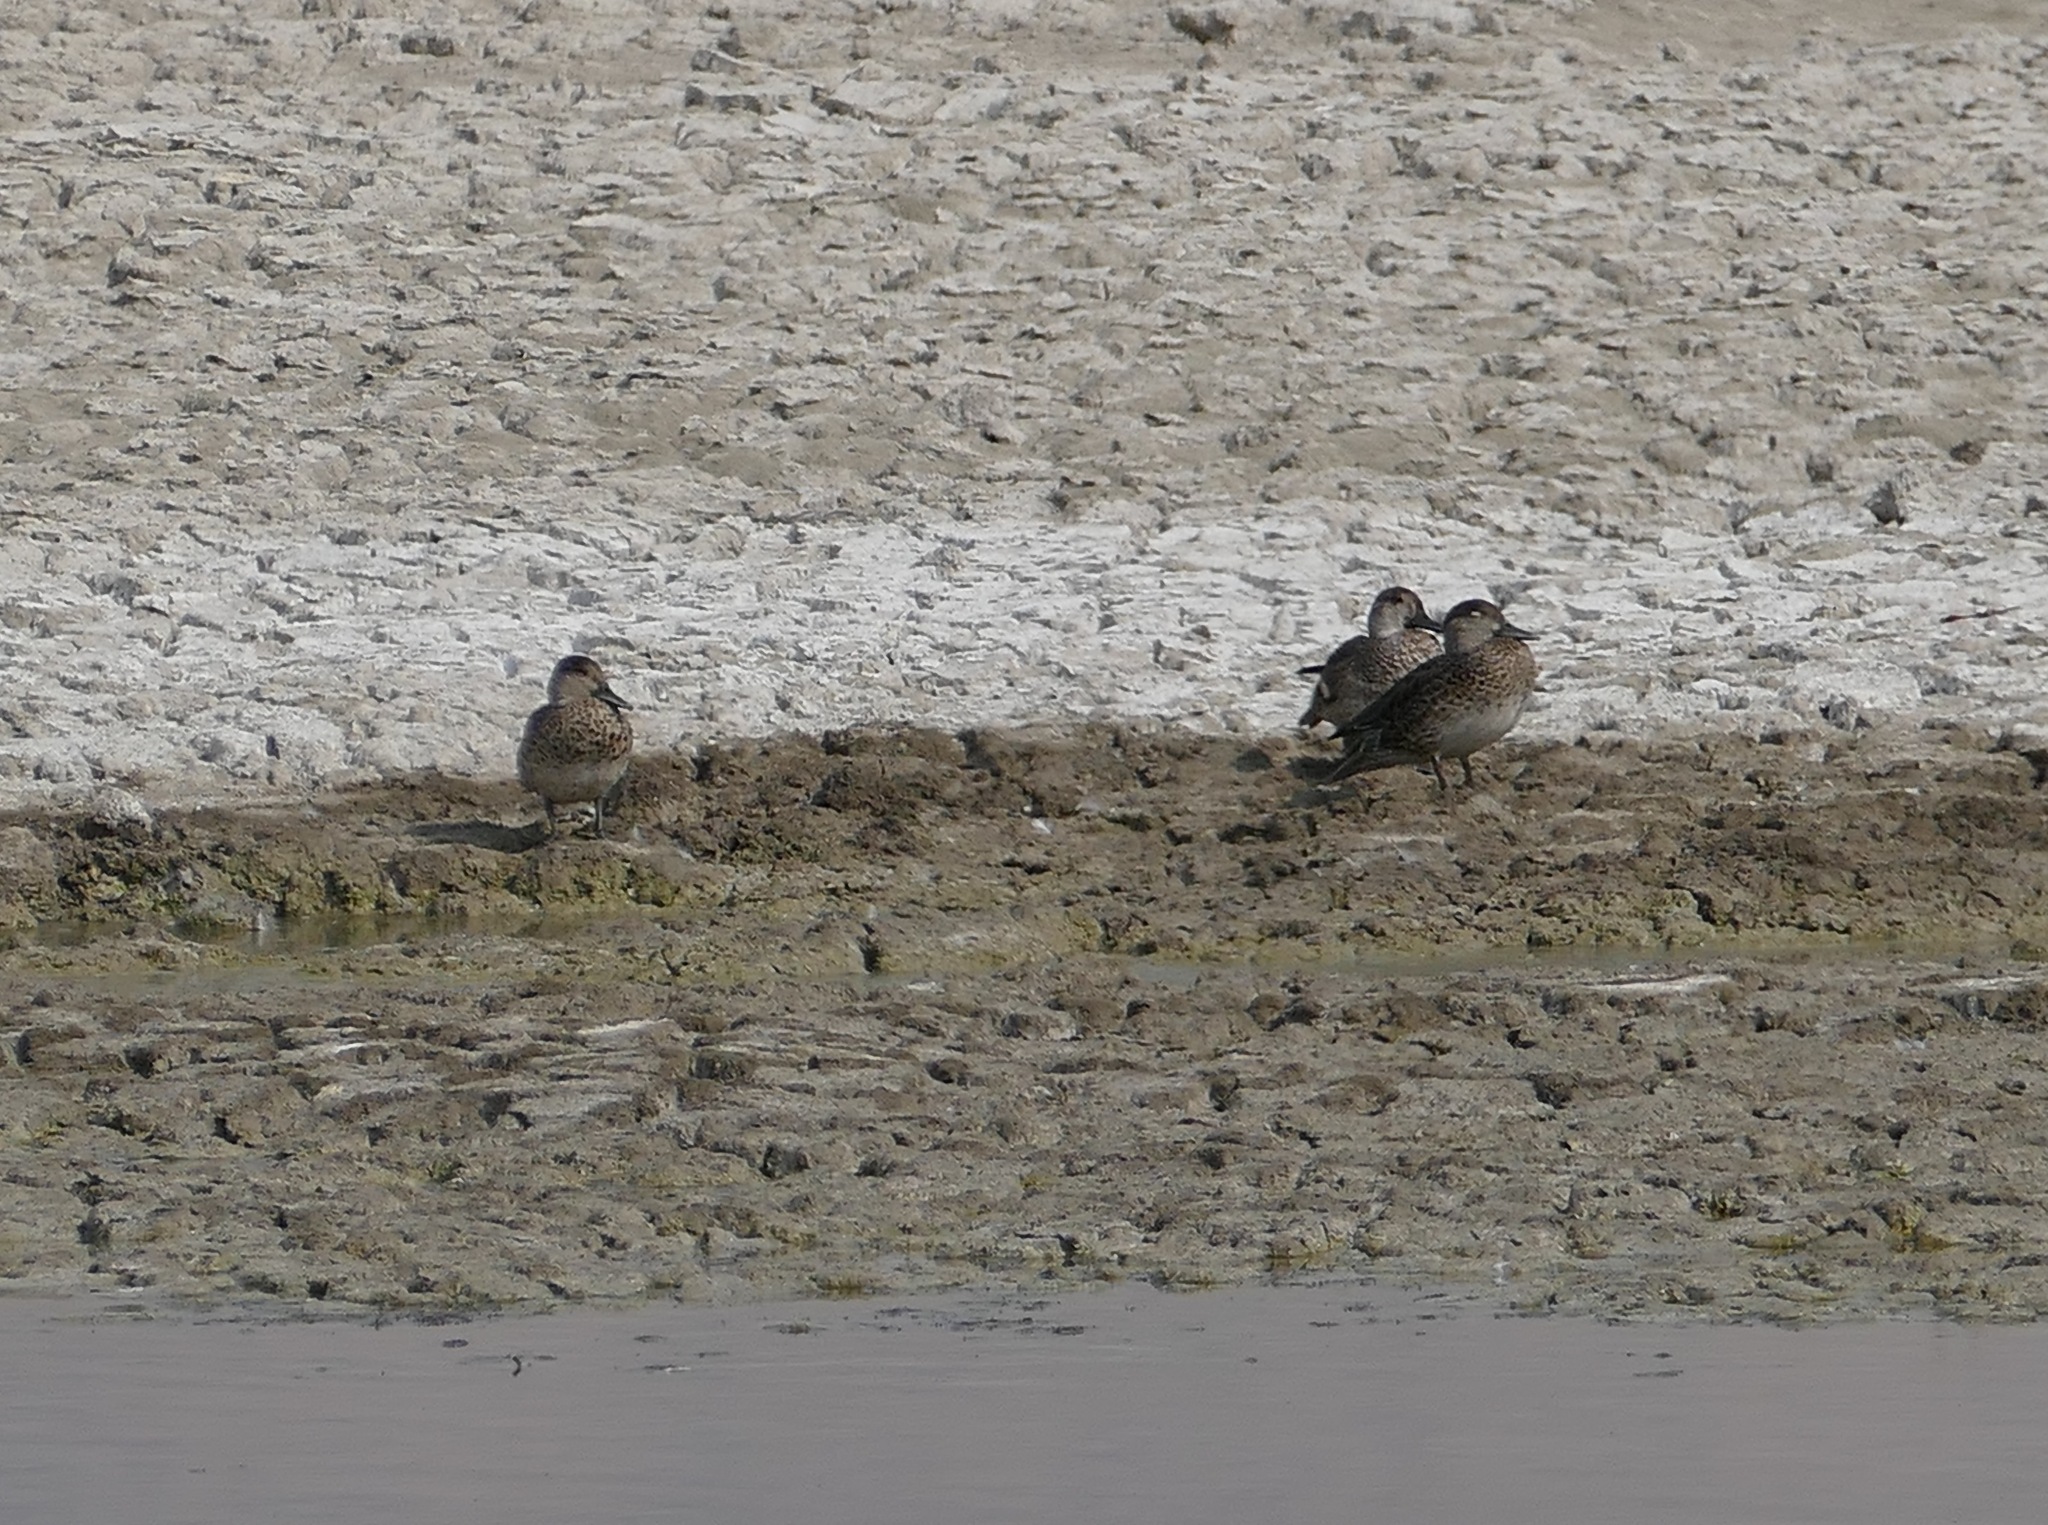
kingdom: Animalia
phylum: Chordata
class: Aves
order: Anseriformes
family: Anatidae
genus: Anas
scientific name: Anas crecca
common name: Eurasian teal
